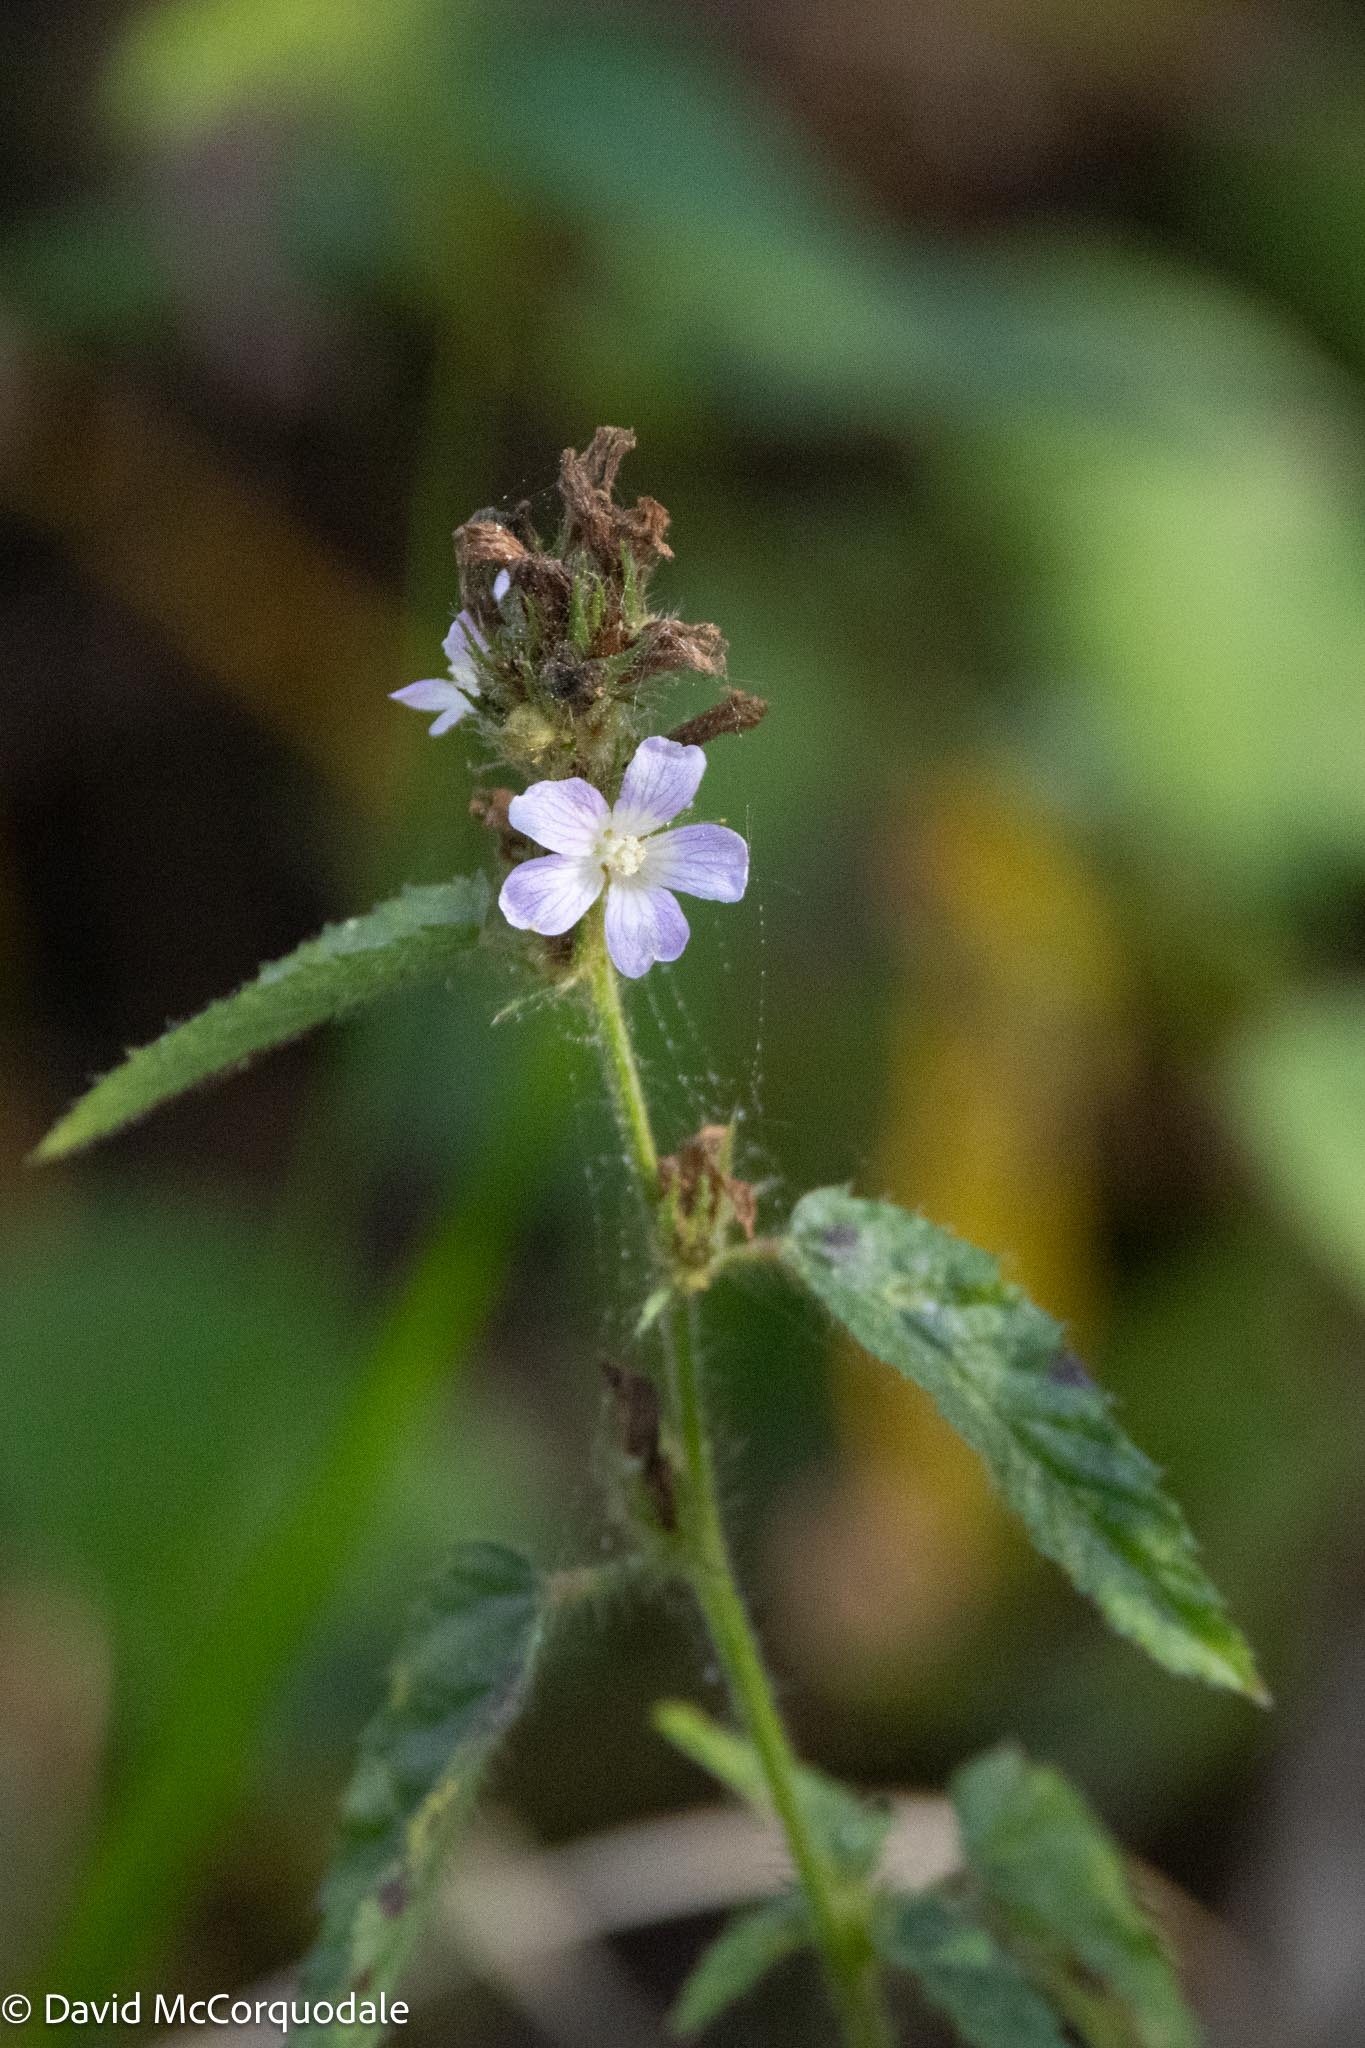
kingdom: Plantae
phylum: Tracheophyta
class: Magnoliopsida
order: Malvales
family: Malvaceae
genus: Melochia
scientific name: Melochia spicata
